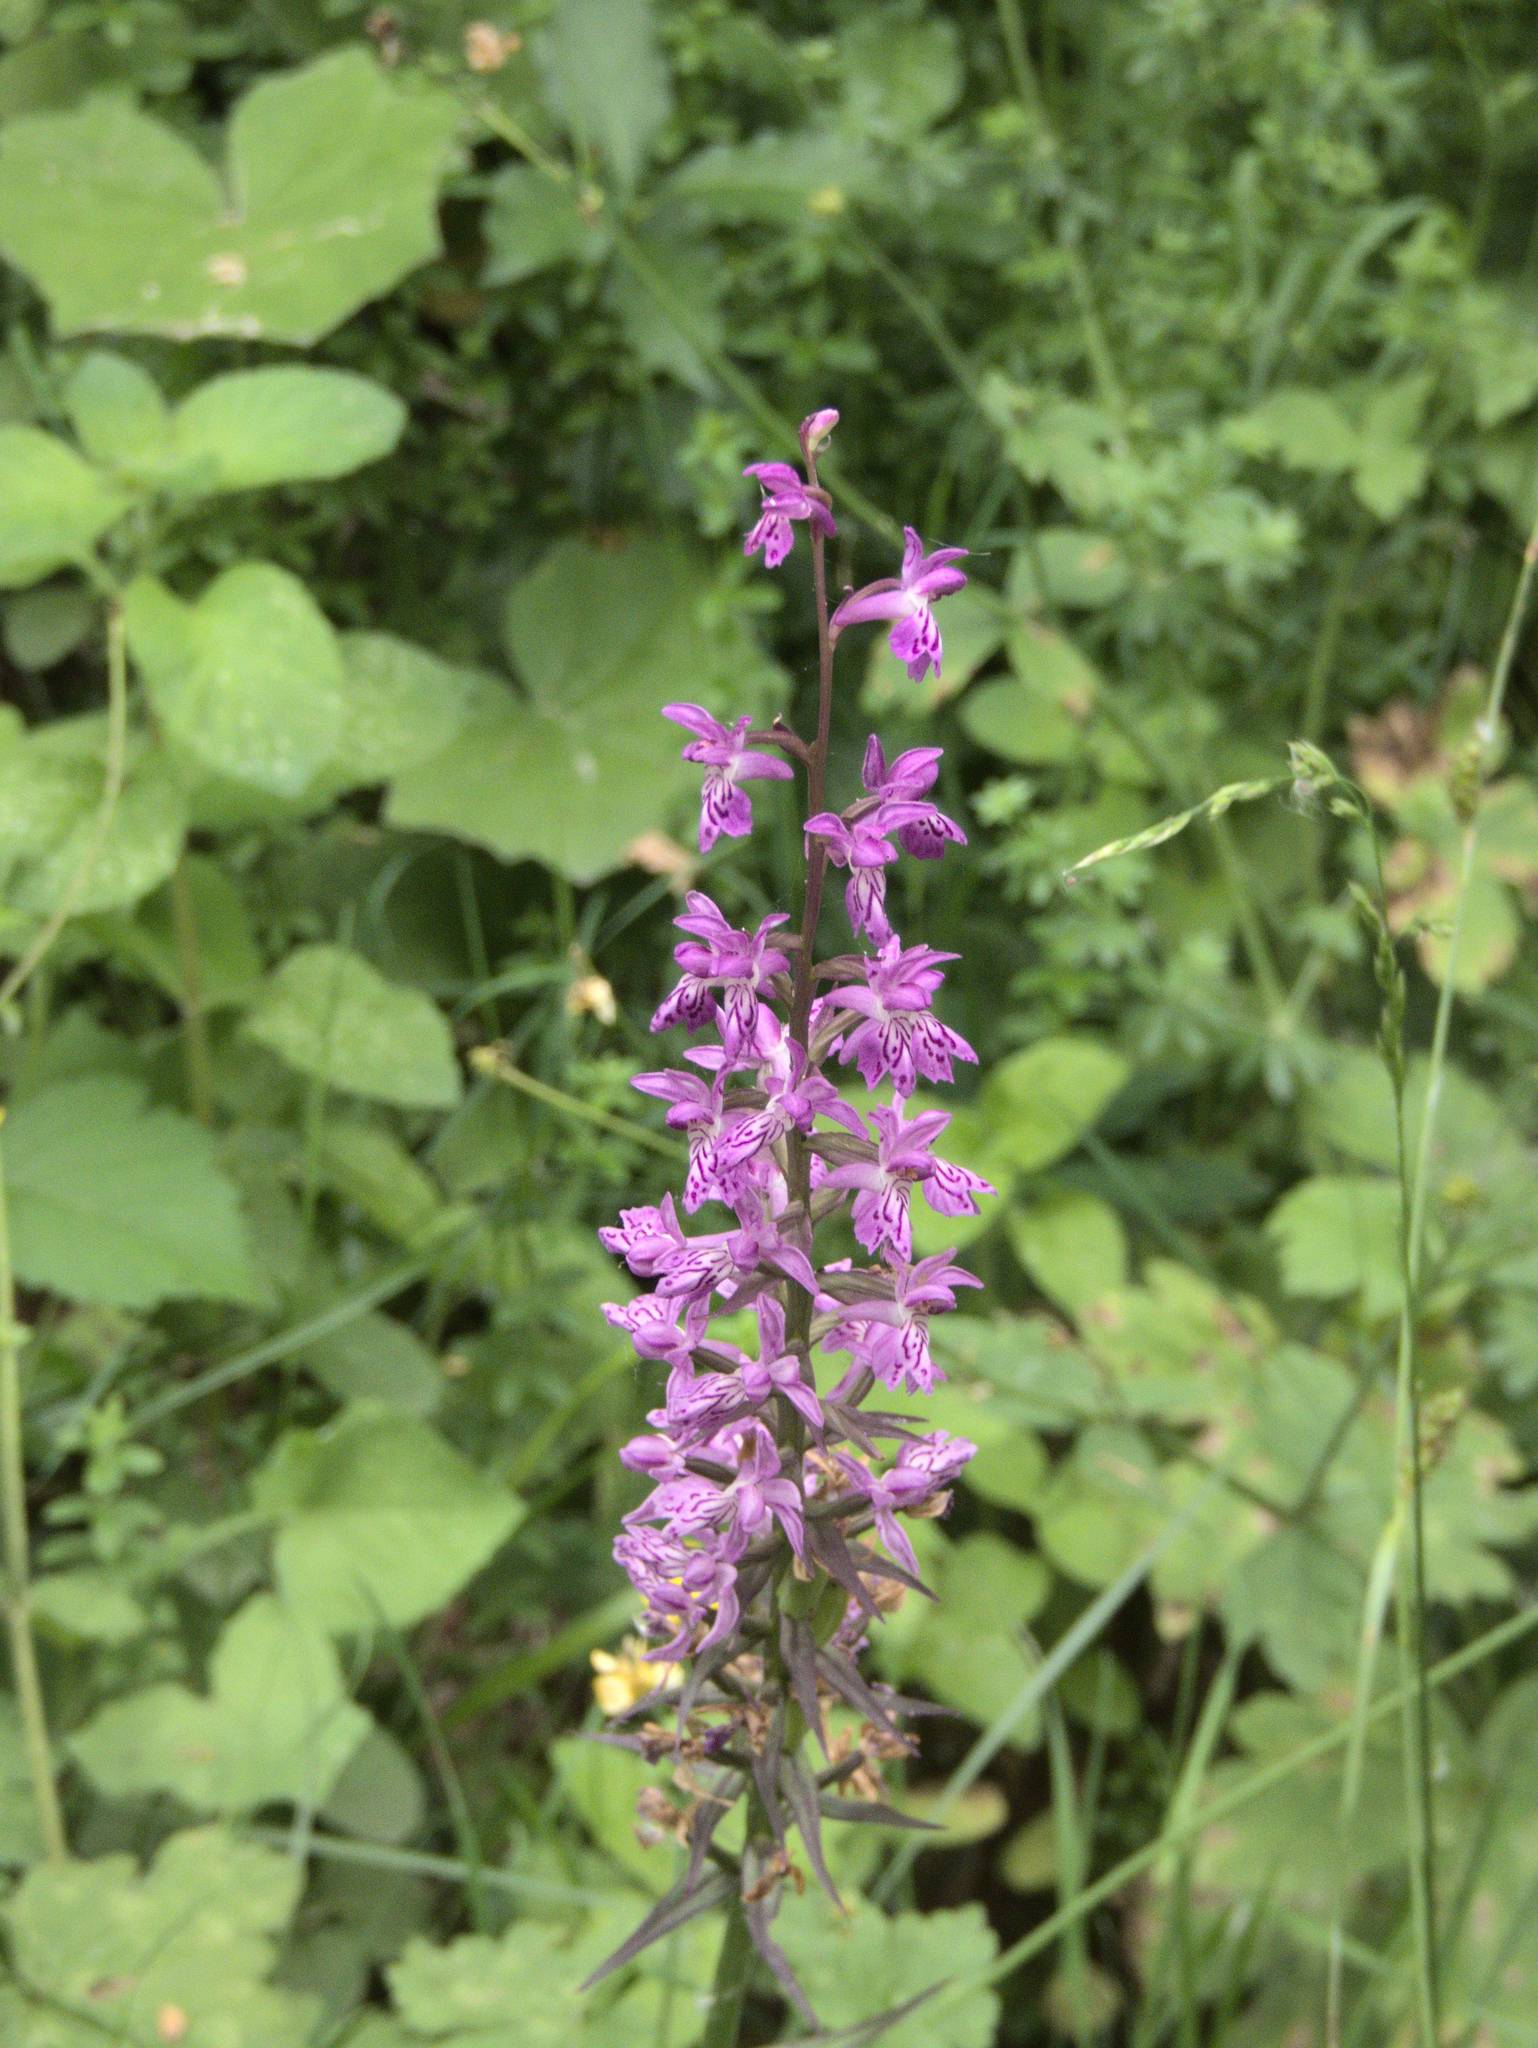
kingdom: Plantae
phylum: Tracheophyta
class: Liliopsida
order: Asparagales
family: Orchidaceae
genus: Dactylorhiza
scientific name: Dactylorhiza maculata
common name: Heath spotted-orchid
